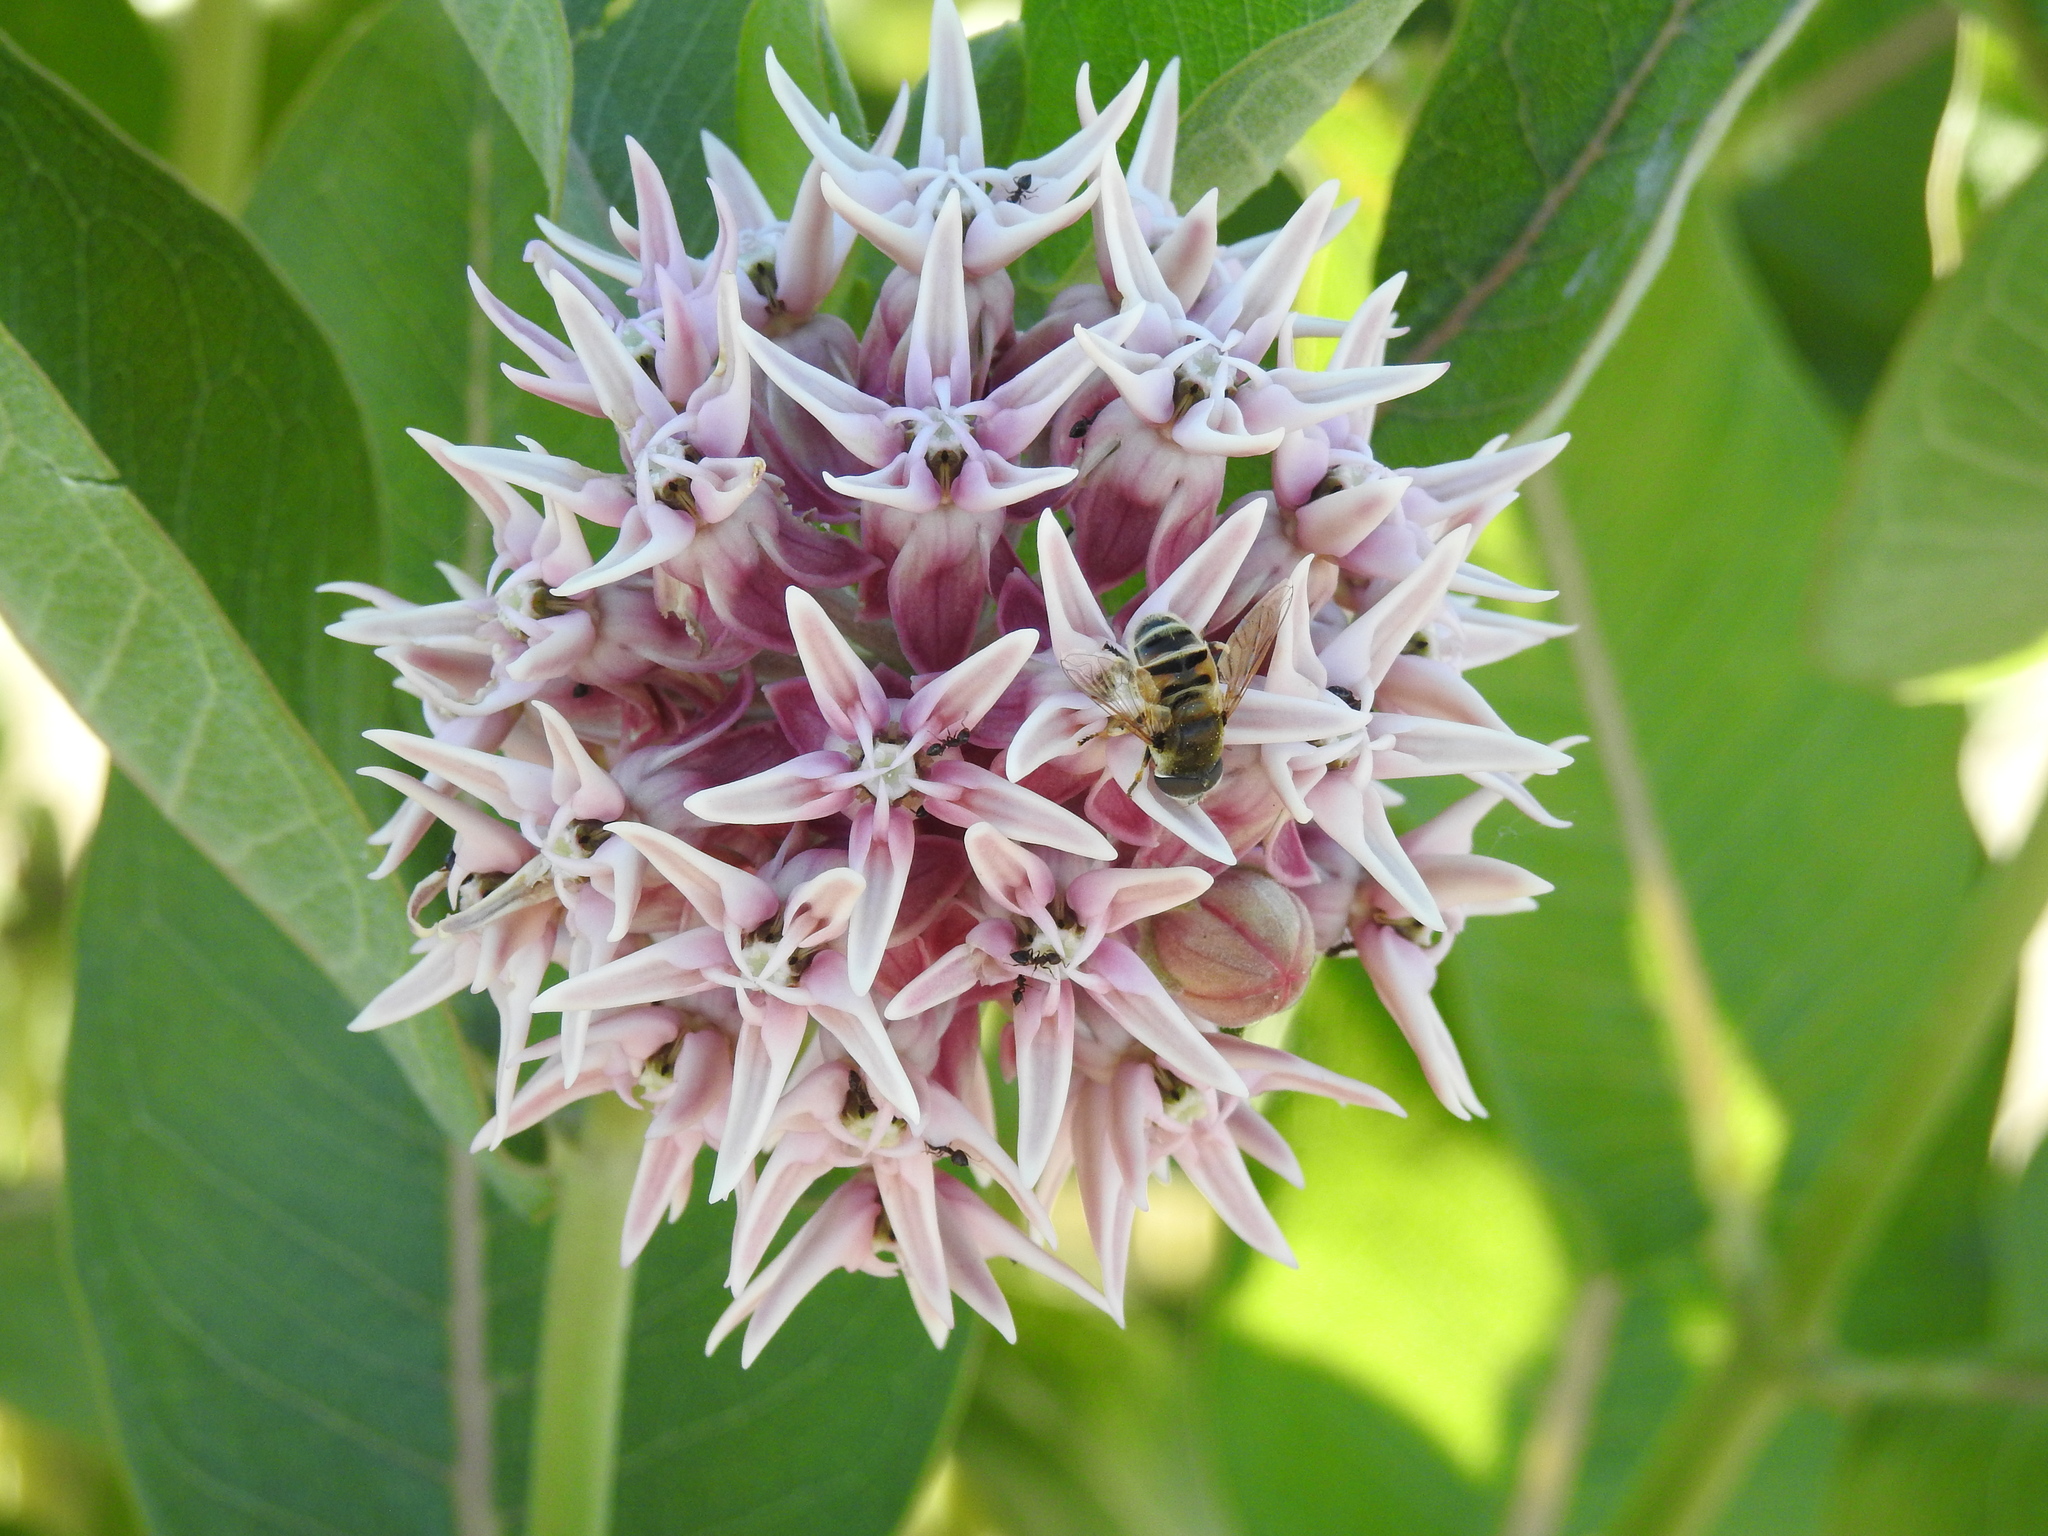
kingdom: Animalia
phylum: Arthropoda
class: Insecta
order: Diptera
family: Syrphidae
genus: Eristalis
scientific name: Eristalis stipator
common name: Yellow-shouldered drone fly
